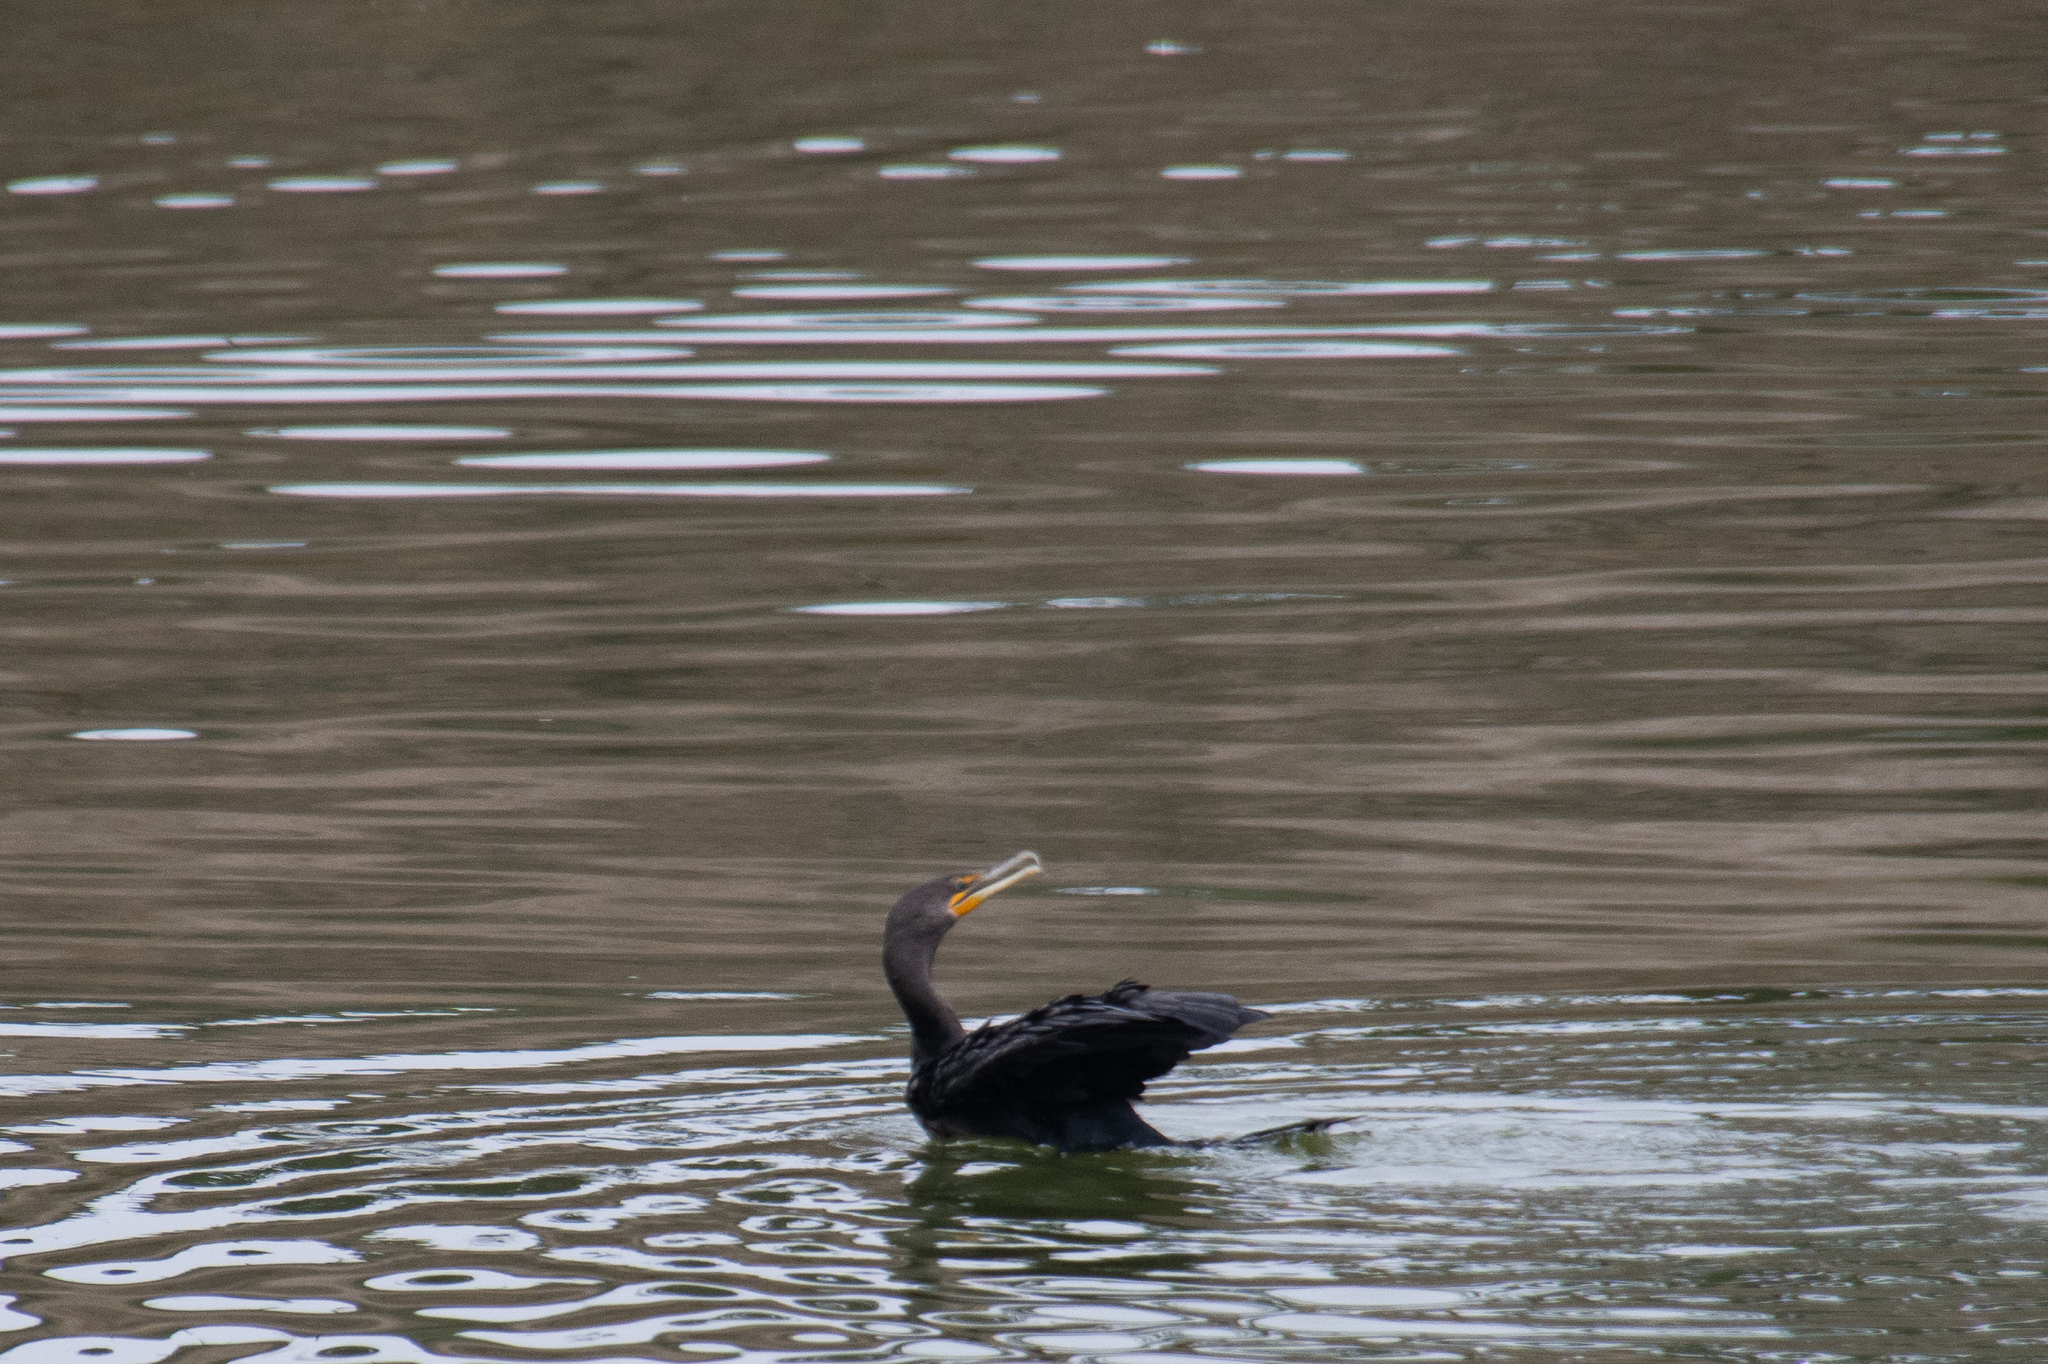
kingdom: Animalia
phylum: Chordata
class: Aves
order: Suliformes
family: Phalacrocoracidae
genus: Phalacrocorax
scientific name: Phalacrocorax auritus
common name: Double-crested cormorant
